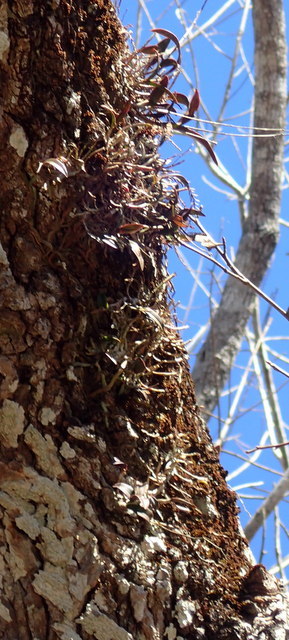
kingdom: Plantae
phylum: Tracheophyta
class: Liliopsida
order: Asparagales
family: Orchidaceae
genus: Epidendrum
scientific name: Epidendrum conopseum
